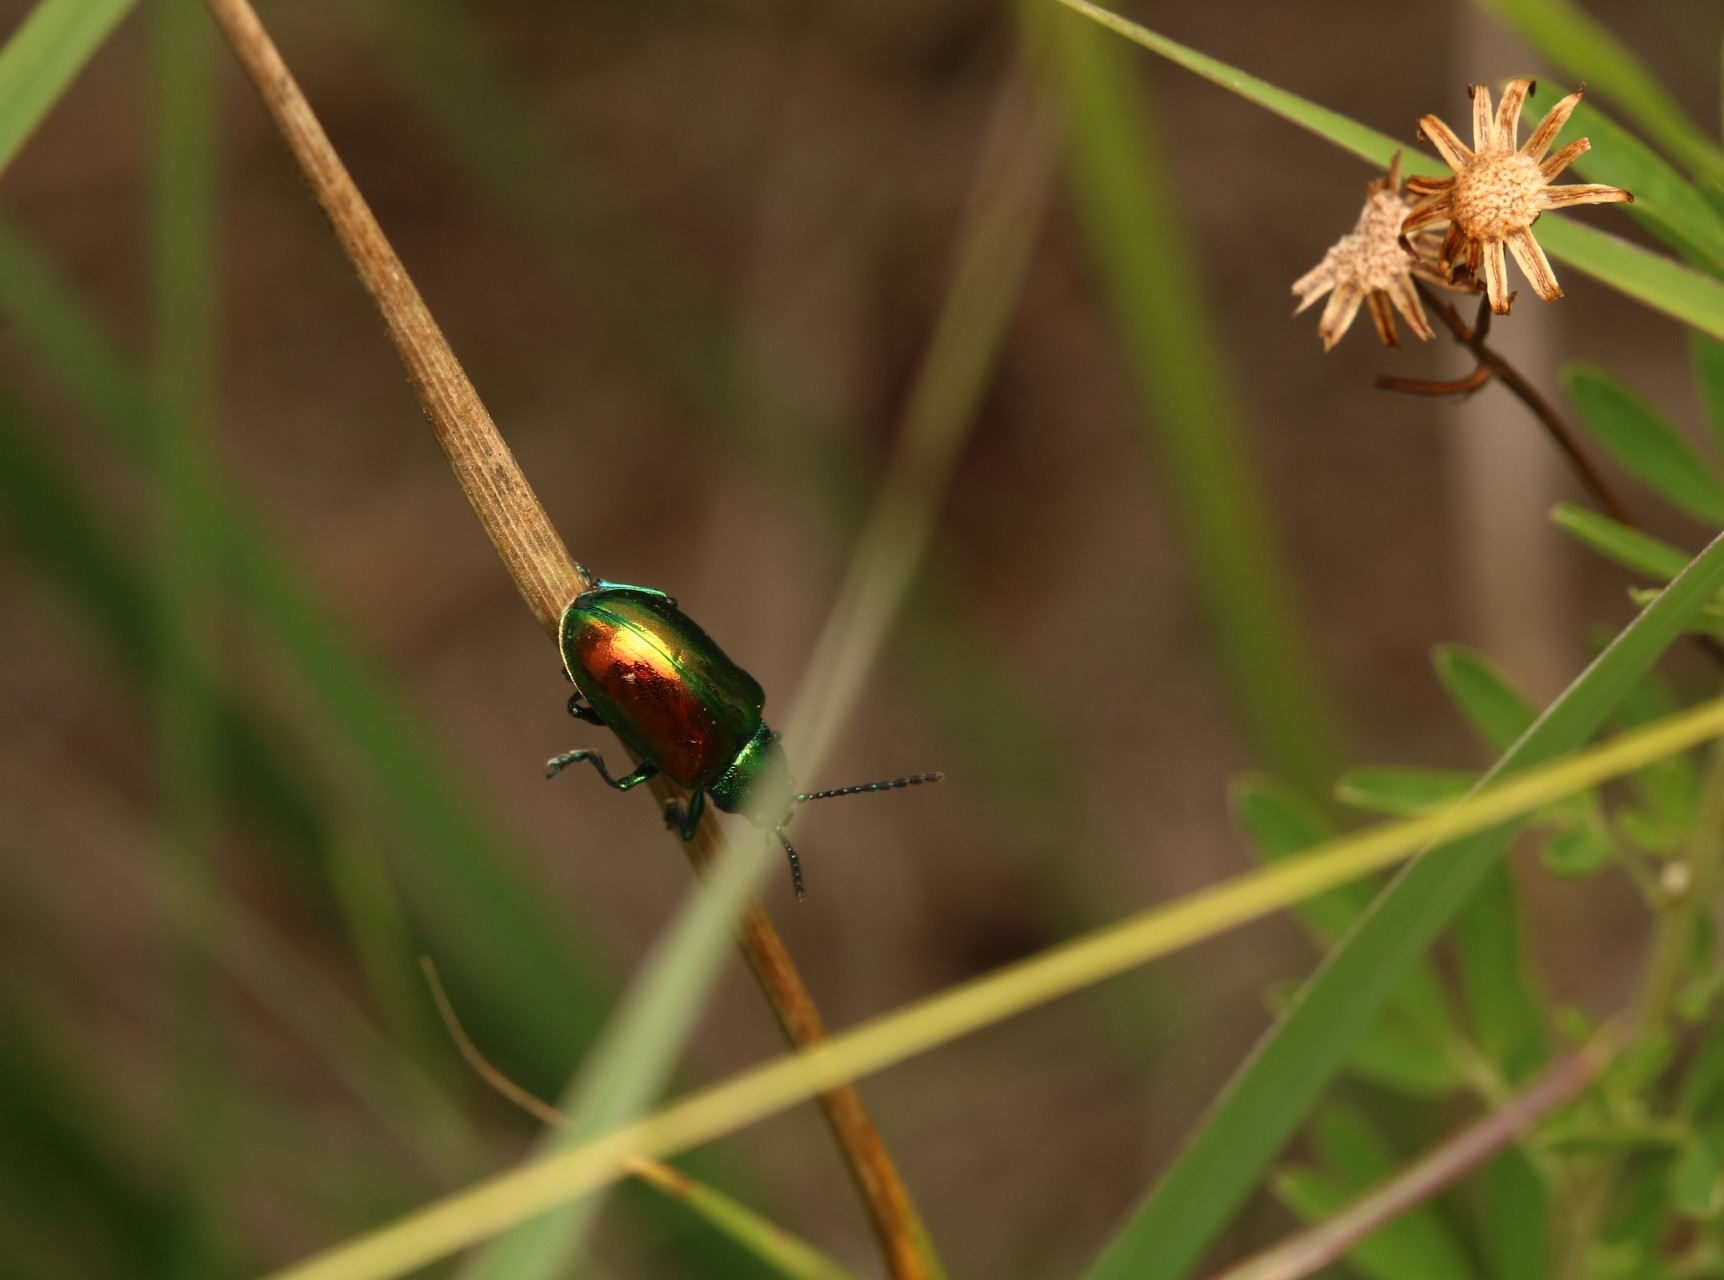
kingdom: Animalia
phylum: Arthropoda
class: Insecta
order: Coleoptera
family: Chrysomelidae
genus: Chrysochus
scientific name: Chrysochus auratus
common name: Dogbane leaf beetle
